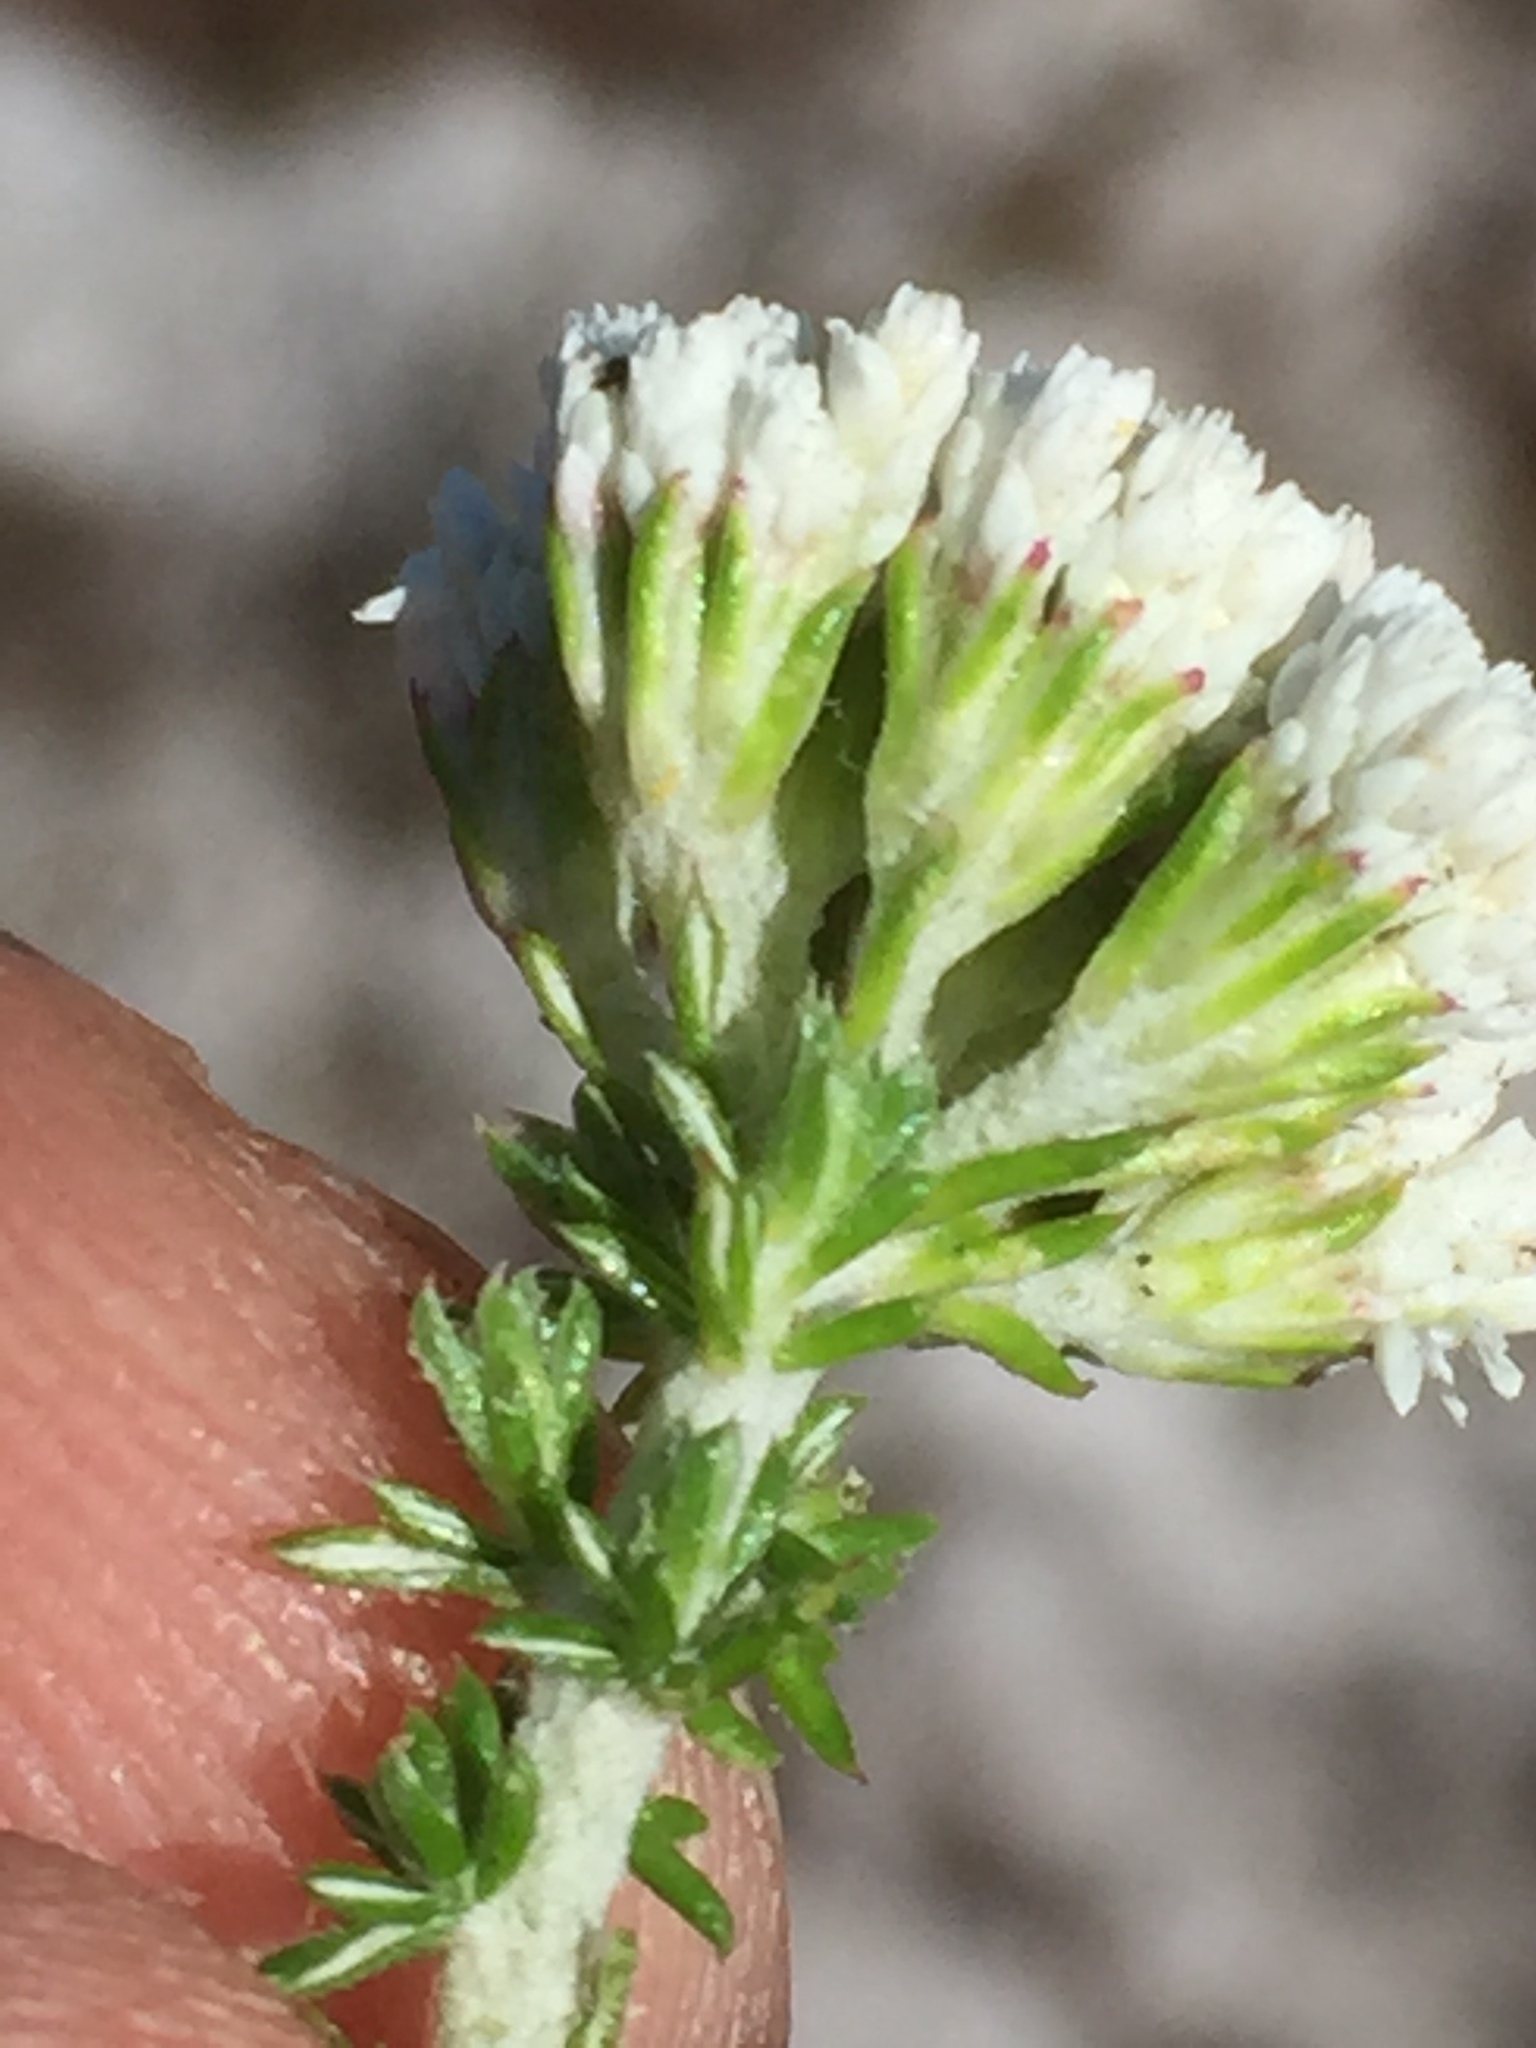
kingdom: Plantae
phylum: Tracheophyta
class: Magnoliopsida
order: Asterales
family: Asteraceae
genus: Metalasia
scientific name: Metalasia brevifolia
